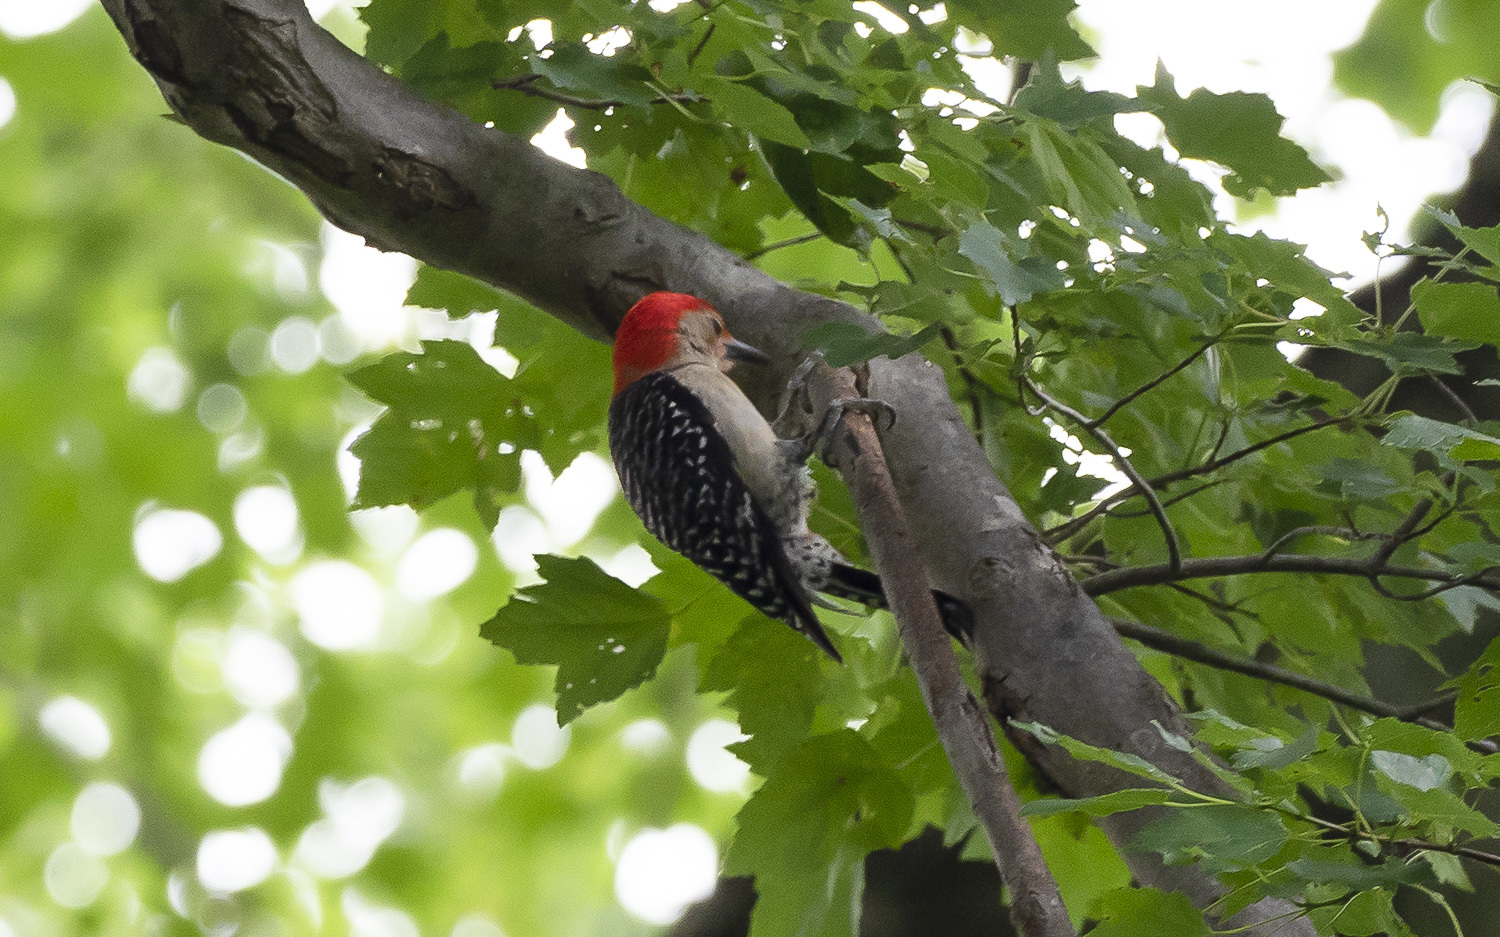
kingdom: Animalia
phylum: Chordata
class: Aves
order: Piciformes
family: Picidae
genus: Melanerpes
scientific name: Melanerpes carolinus
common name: Red-bellied woodpecker
